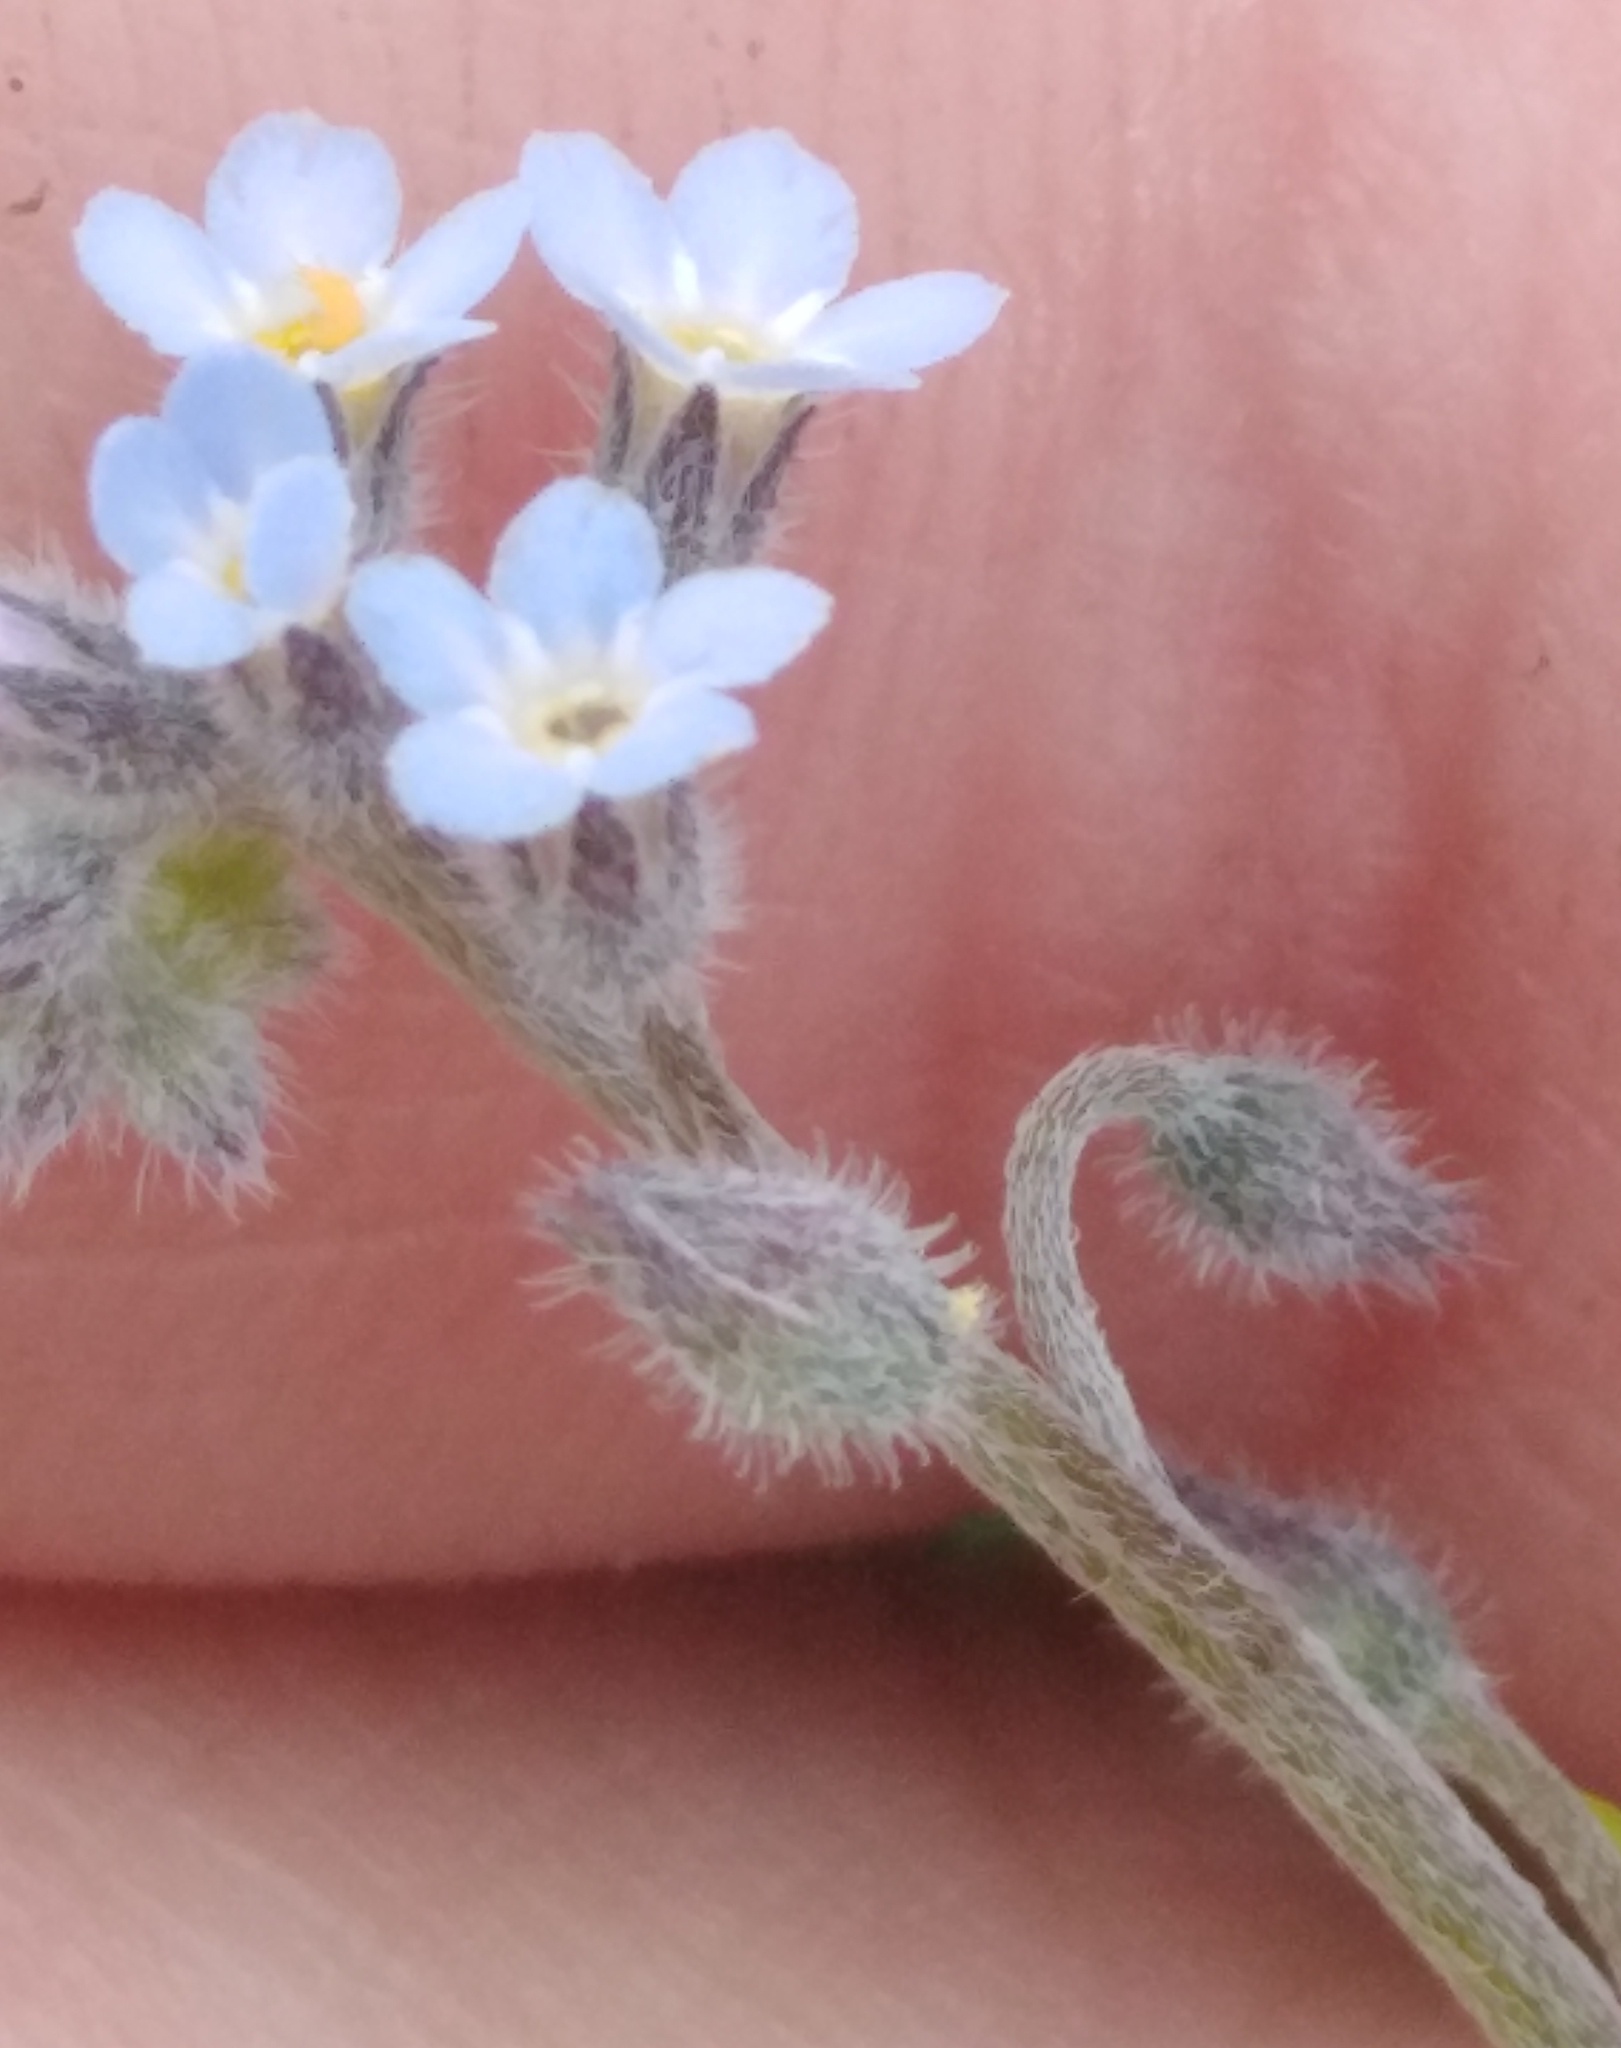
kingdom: Plantae
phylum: Tracheophyta
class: Magnoliopsida
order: Boraginales
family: Boraginaceae
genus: Myosotis
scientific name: Myosotis arvensis
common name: Field forget-me-not
